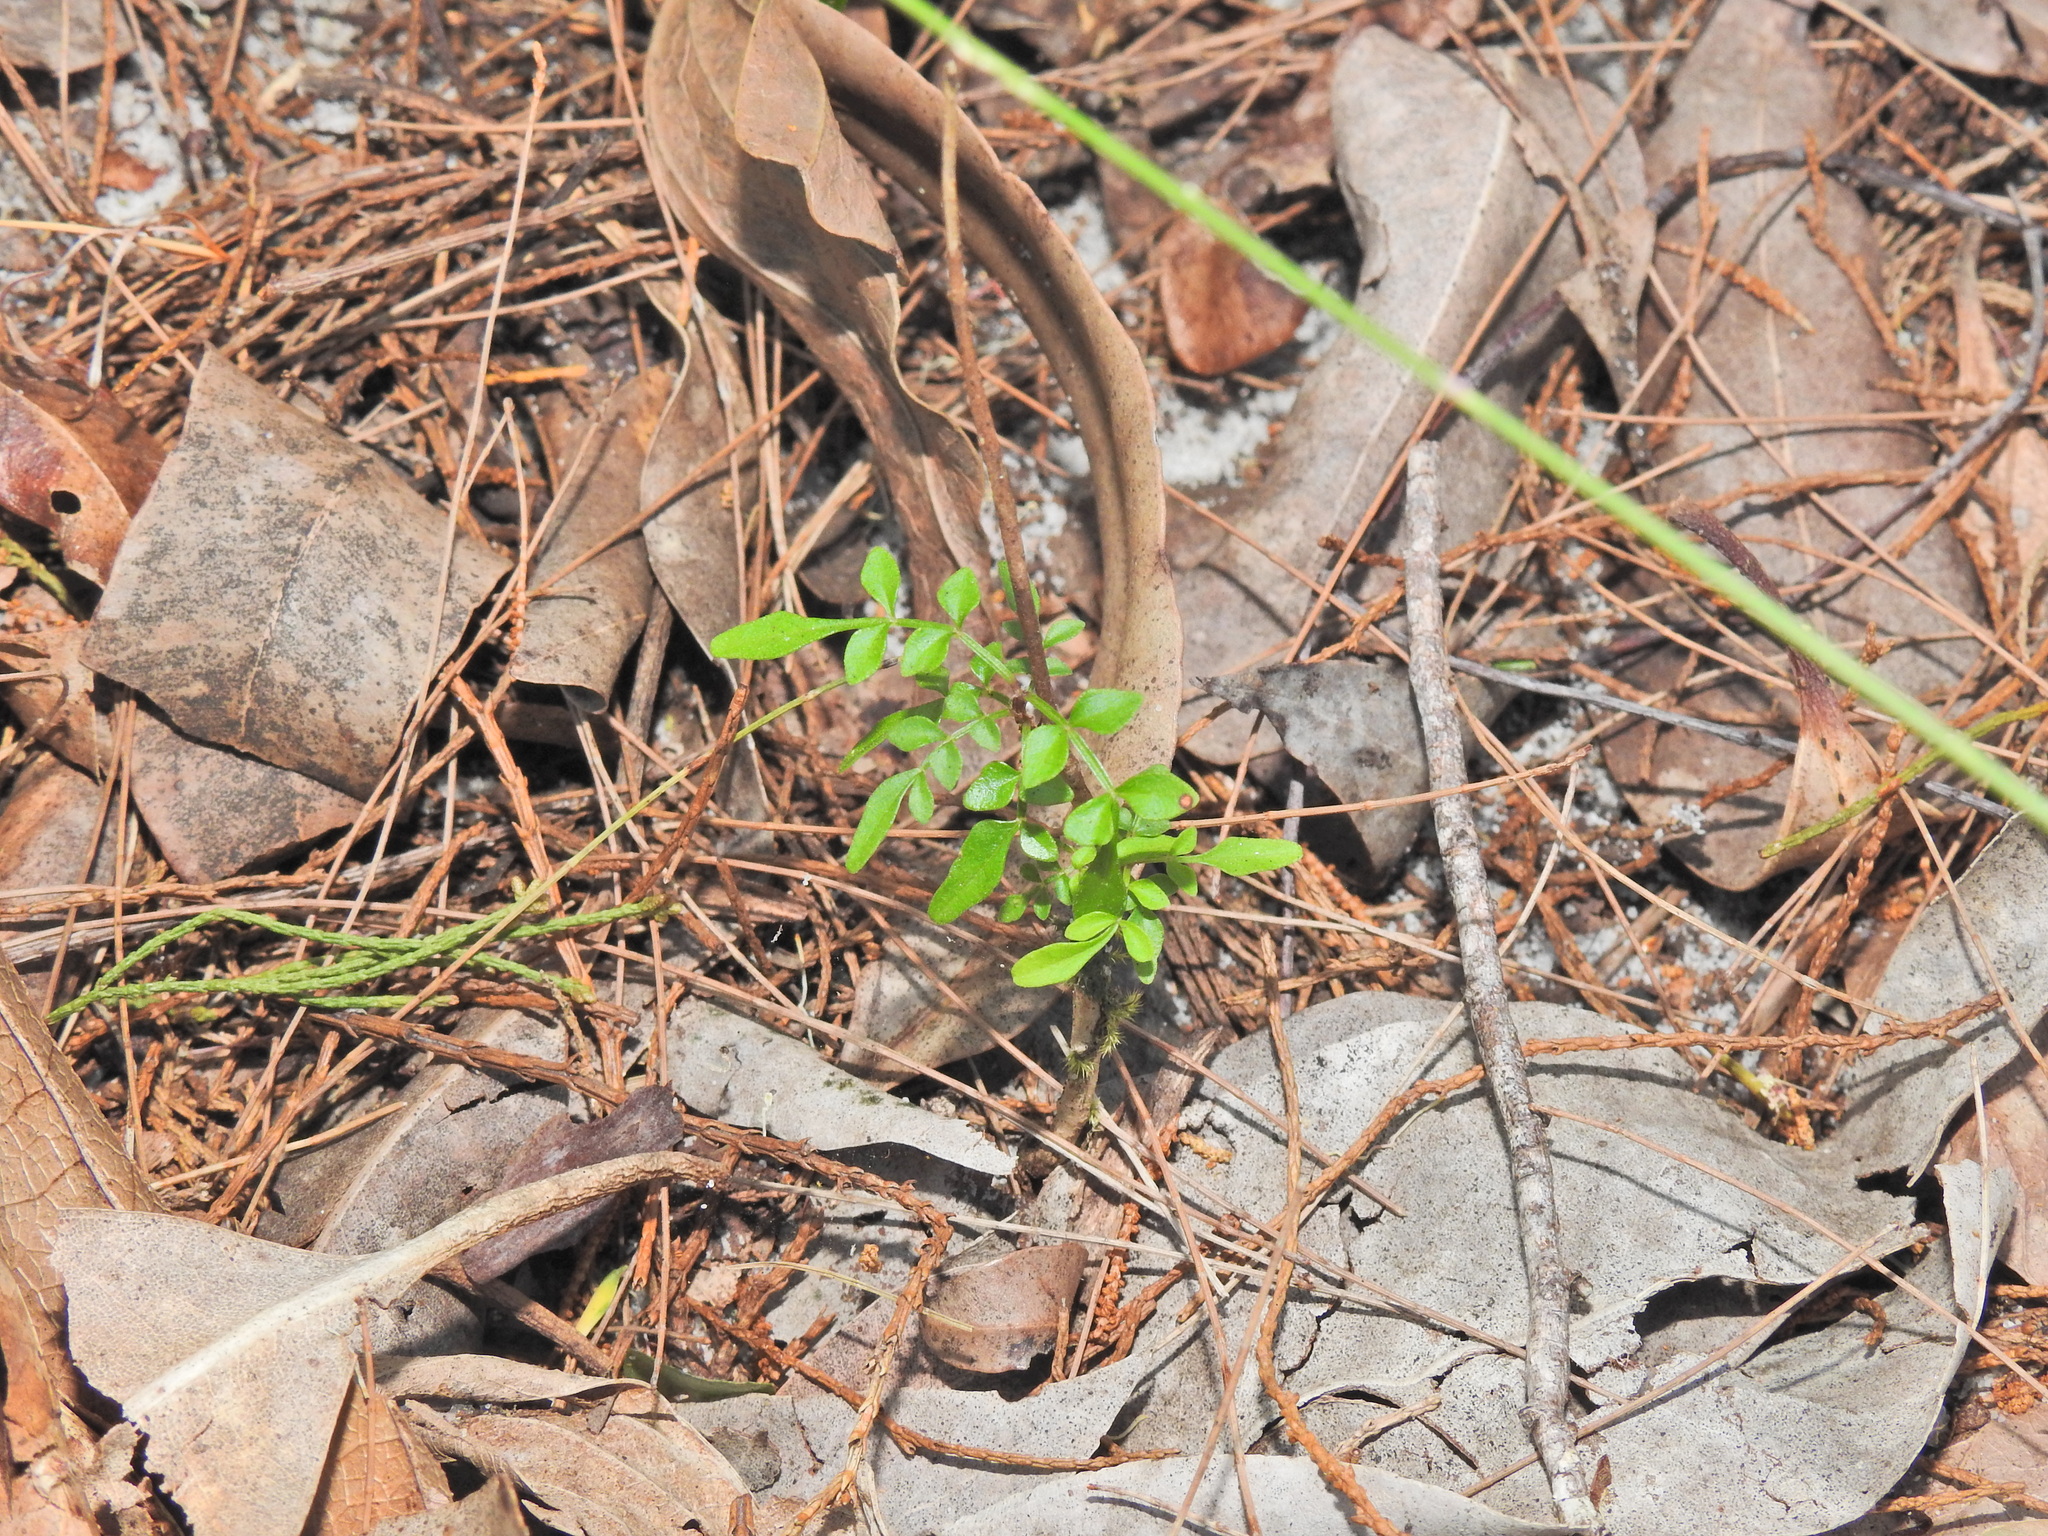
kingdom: Plantae
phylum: Tracheophyta
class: Magnoliopsida
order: Lamiales
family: Bignoniaceae
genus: Pandorea
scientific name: Pandorea pandorana
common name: Wonga-wonga-vine
